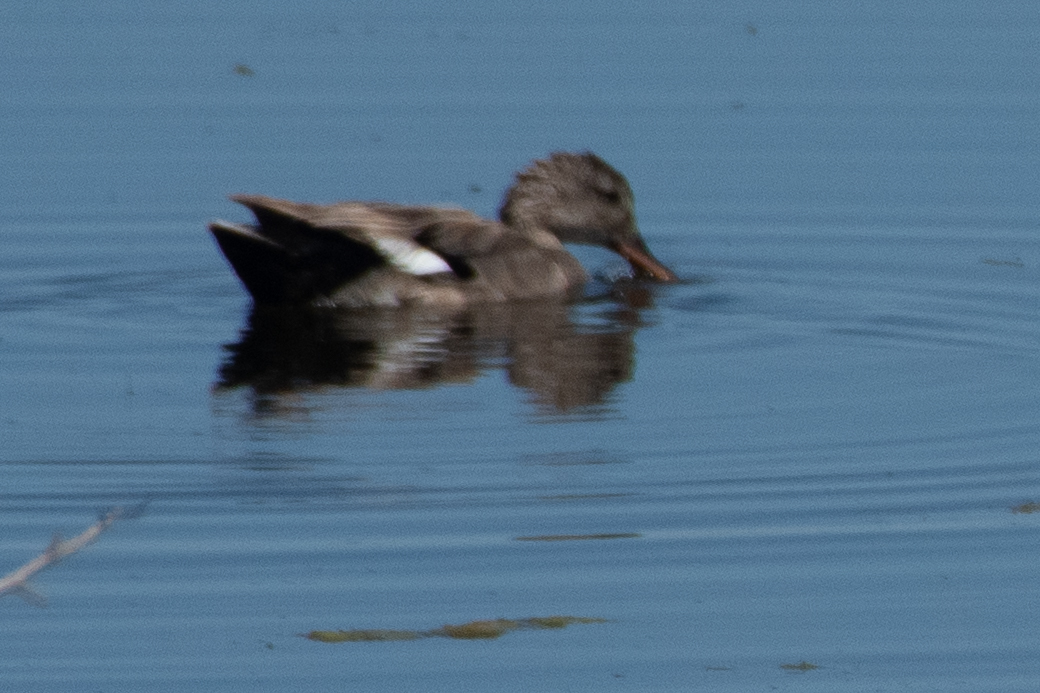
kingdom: Animalia
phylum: Chordata
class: Aves
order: Anseriformes
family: Anatidae
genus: Mareca
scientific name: Mareca strepera
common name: Gadwall
